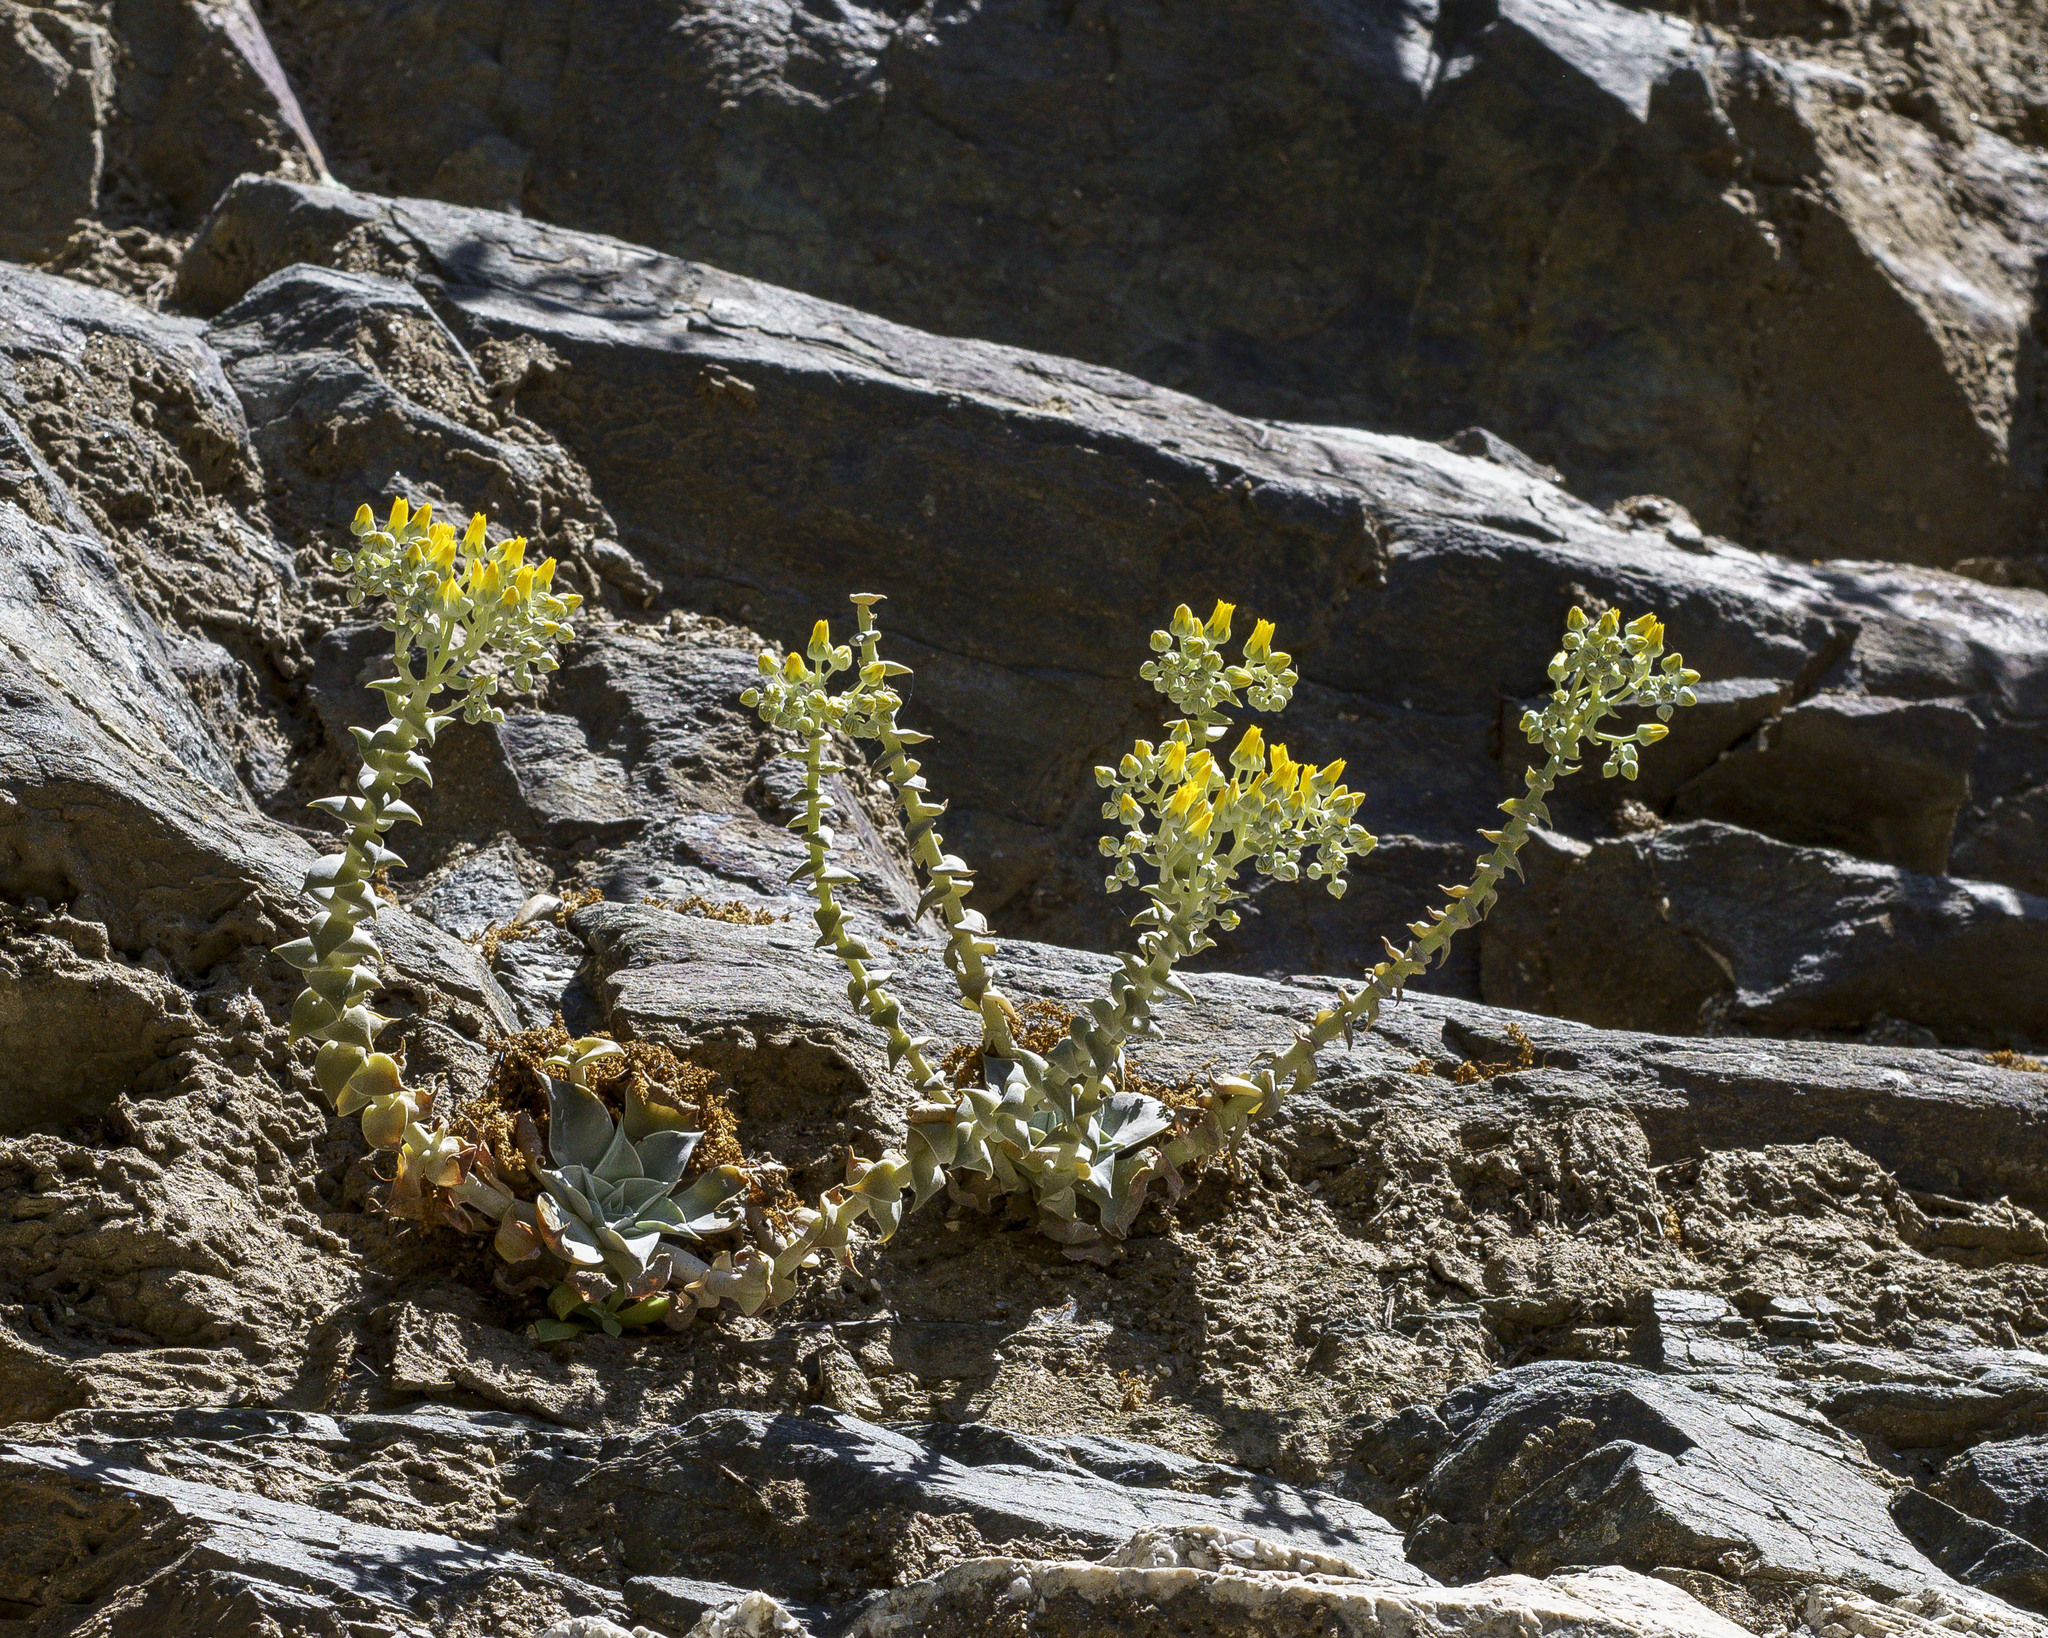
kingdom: Plantae
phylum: Tracheophyta
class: Magnoliopsida
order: Saxifragales
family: Crassulaceae
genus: Dudleya
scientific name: Dudleya cymosa
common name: Canyon dudleya
